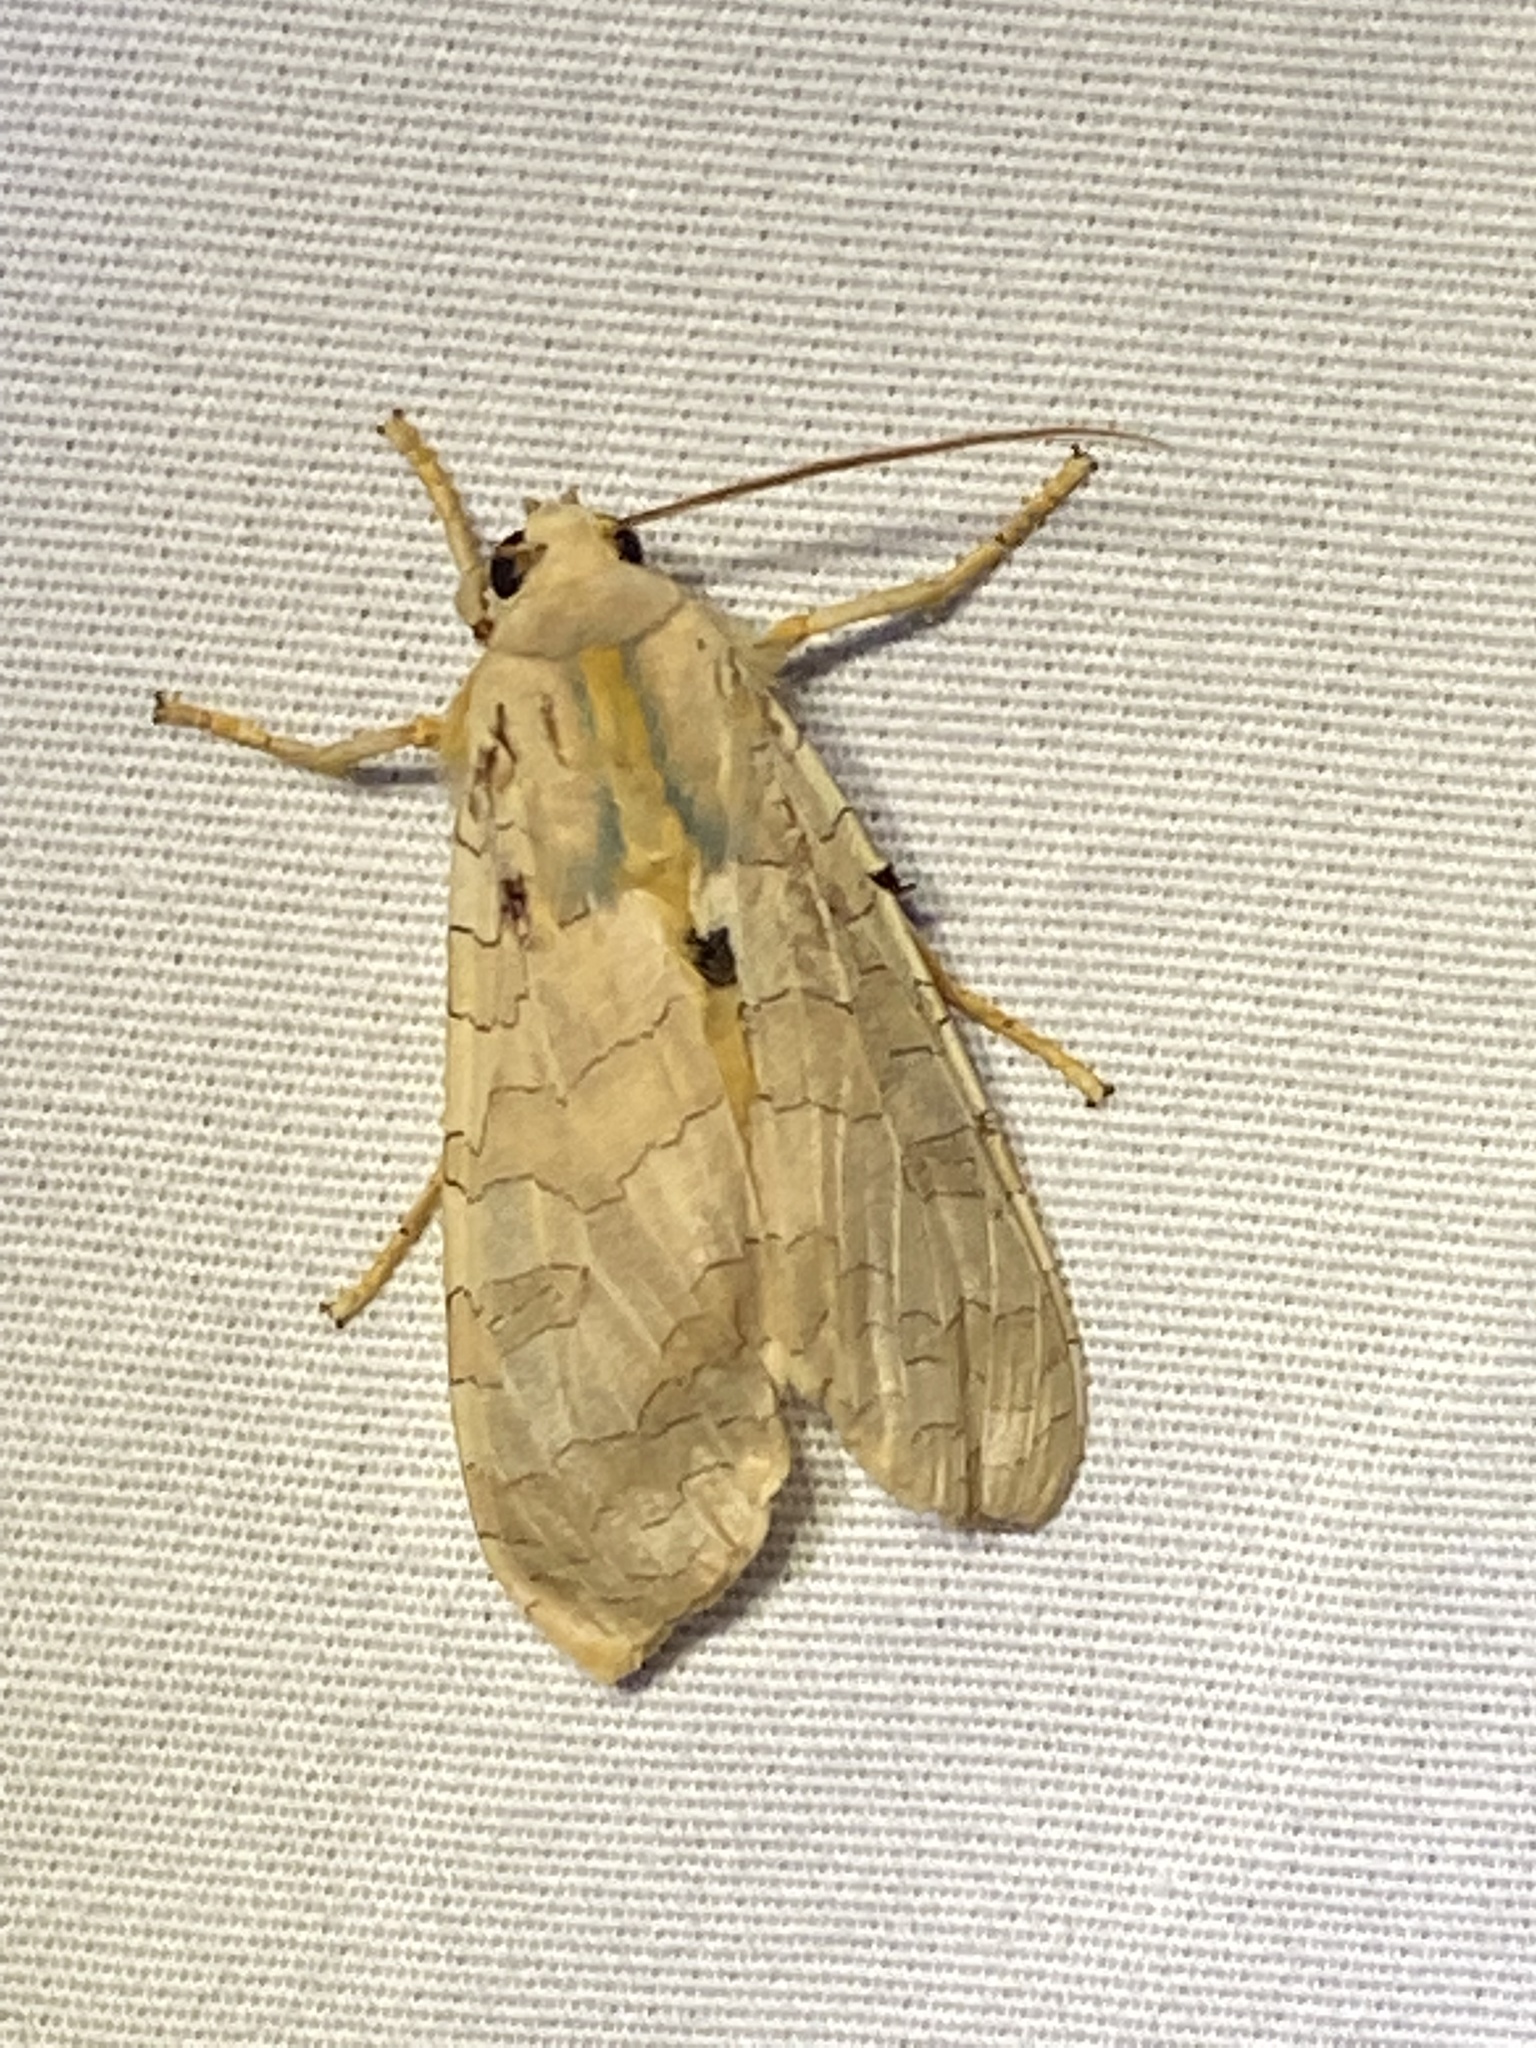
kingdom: Animalia
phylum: Arthropoda
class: Insecta
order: Lepidoptera
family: Erebidae
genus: Halysidota
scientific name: Halysidota
